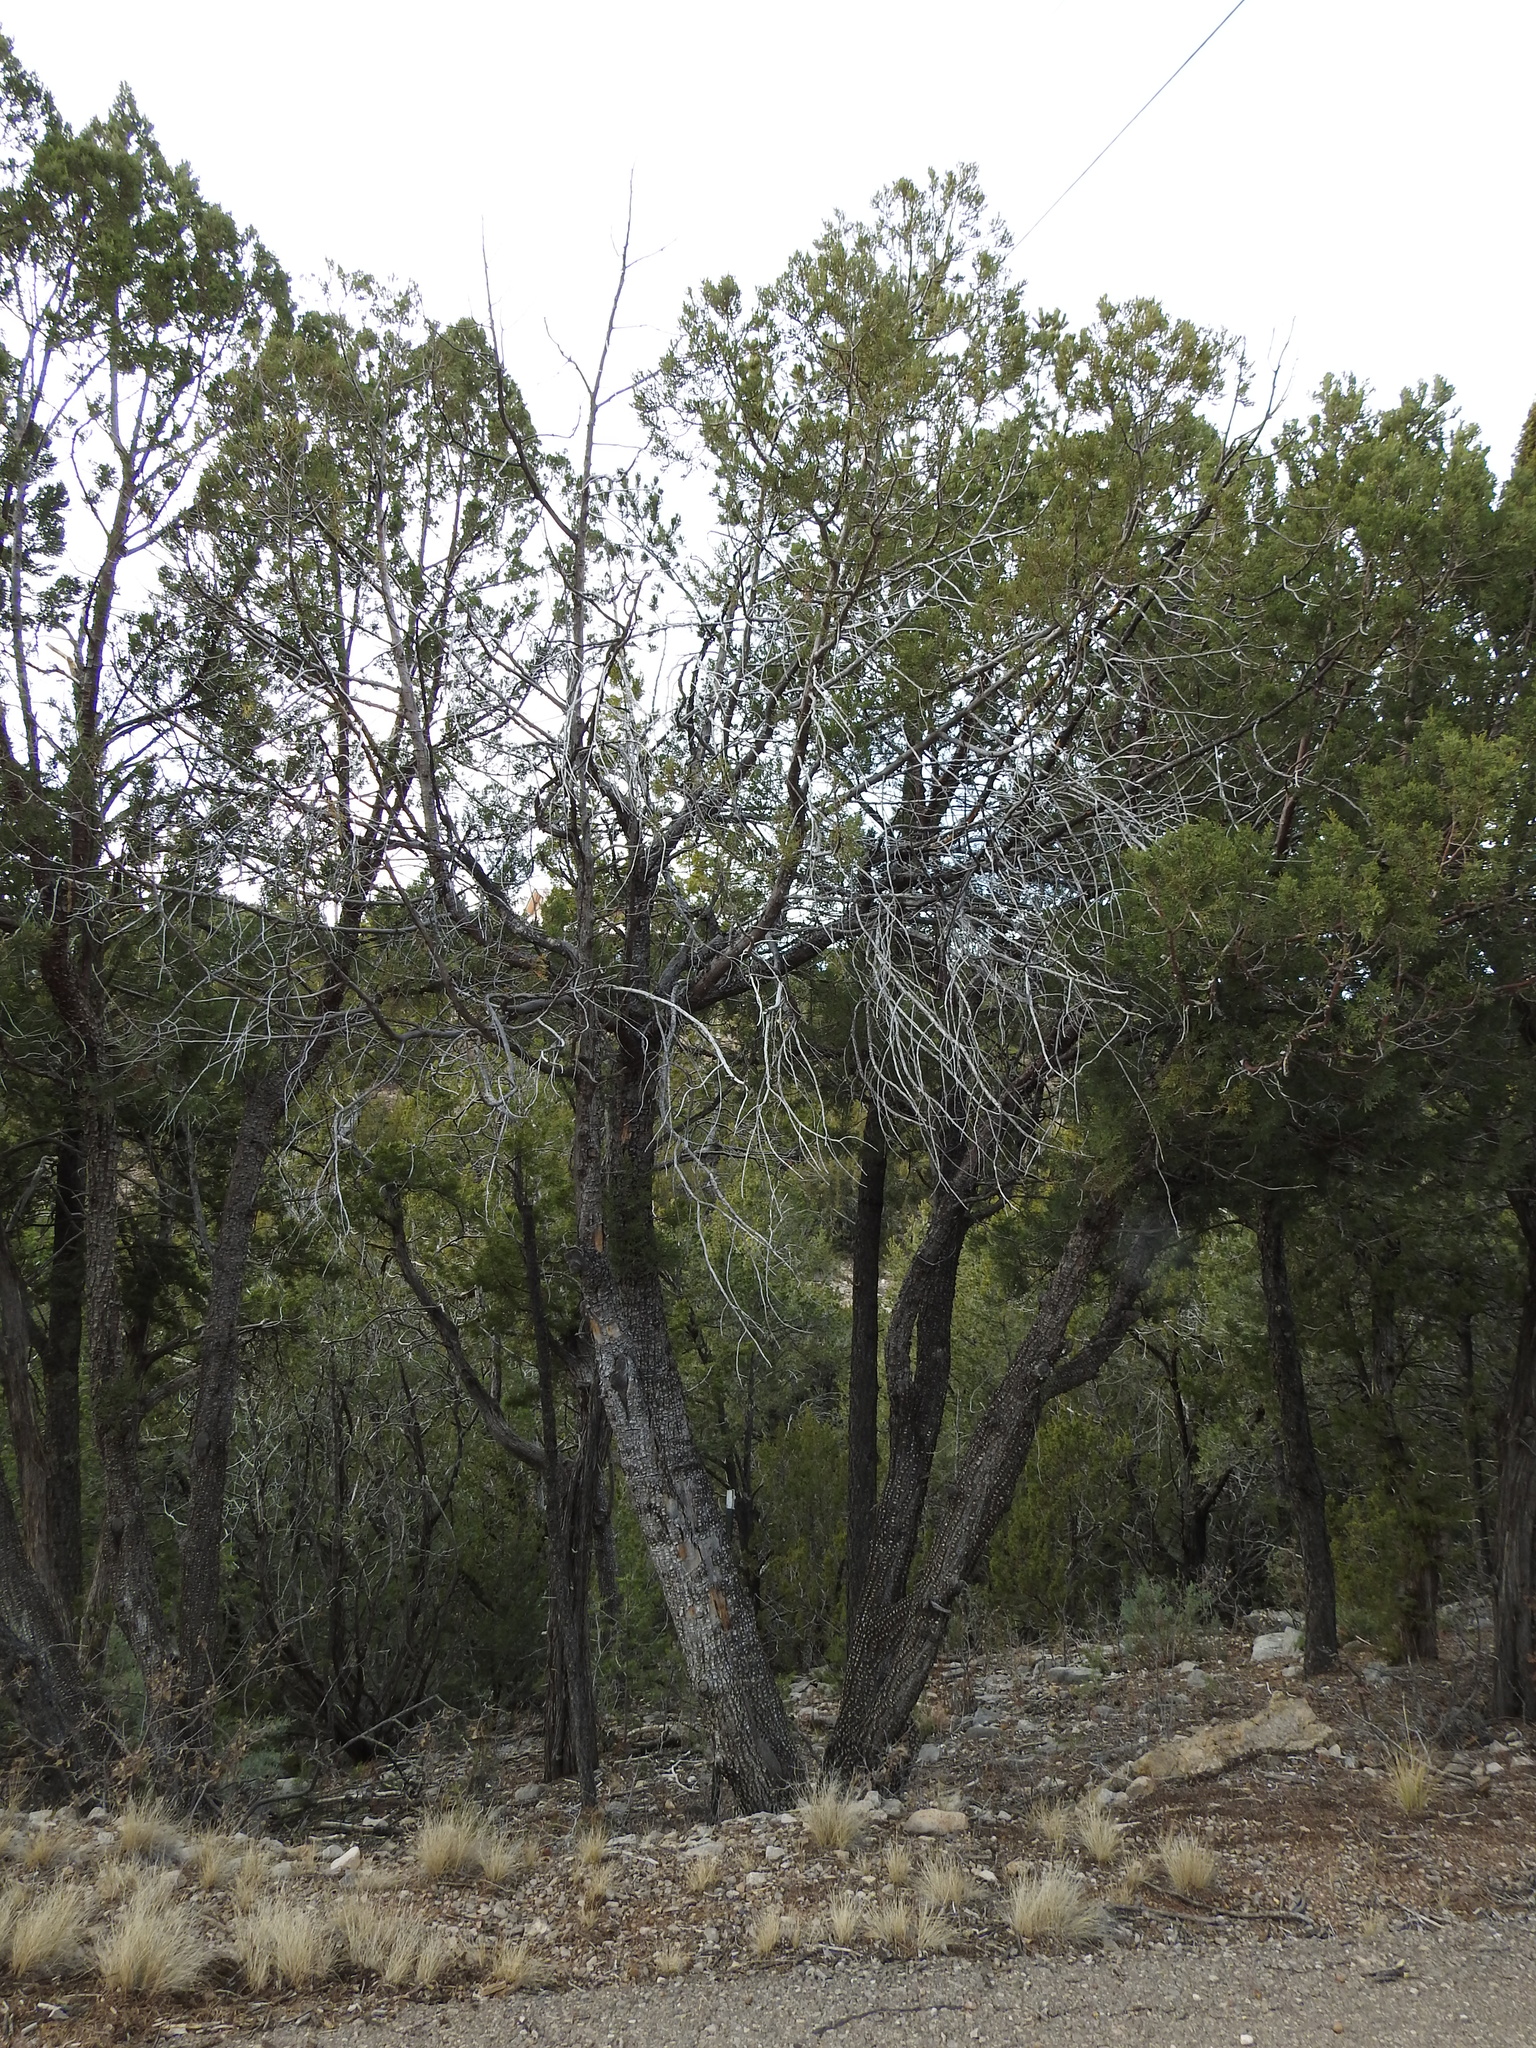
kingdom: Plantae
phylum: Tracheophyta
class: Pinopsida
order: Pinales
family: Cupressaceae
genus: Juniperus
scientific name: Juniperus deppeana
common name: Alligator juniper
